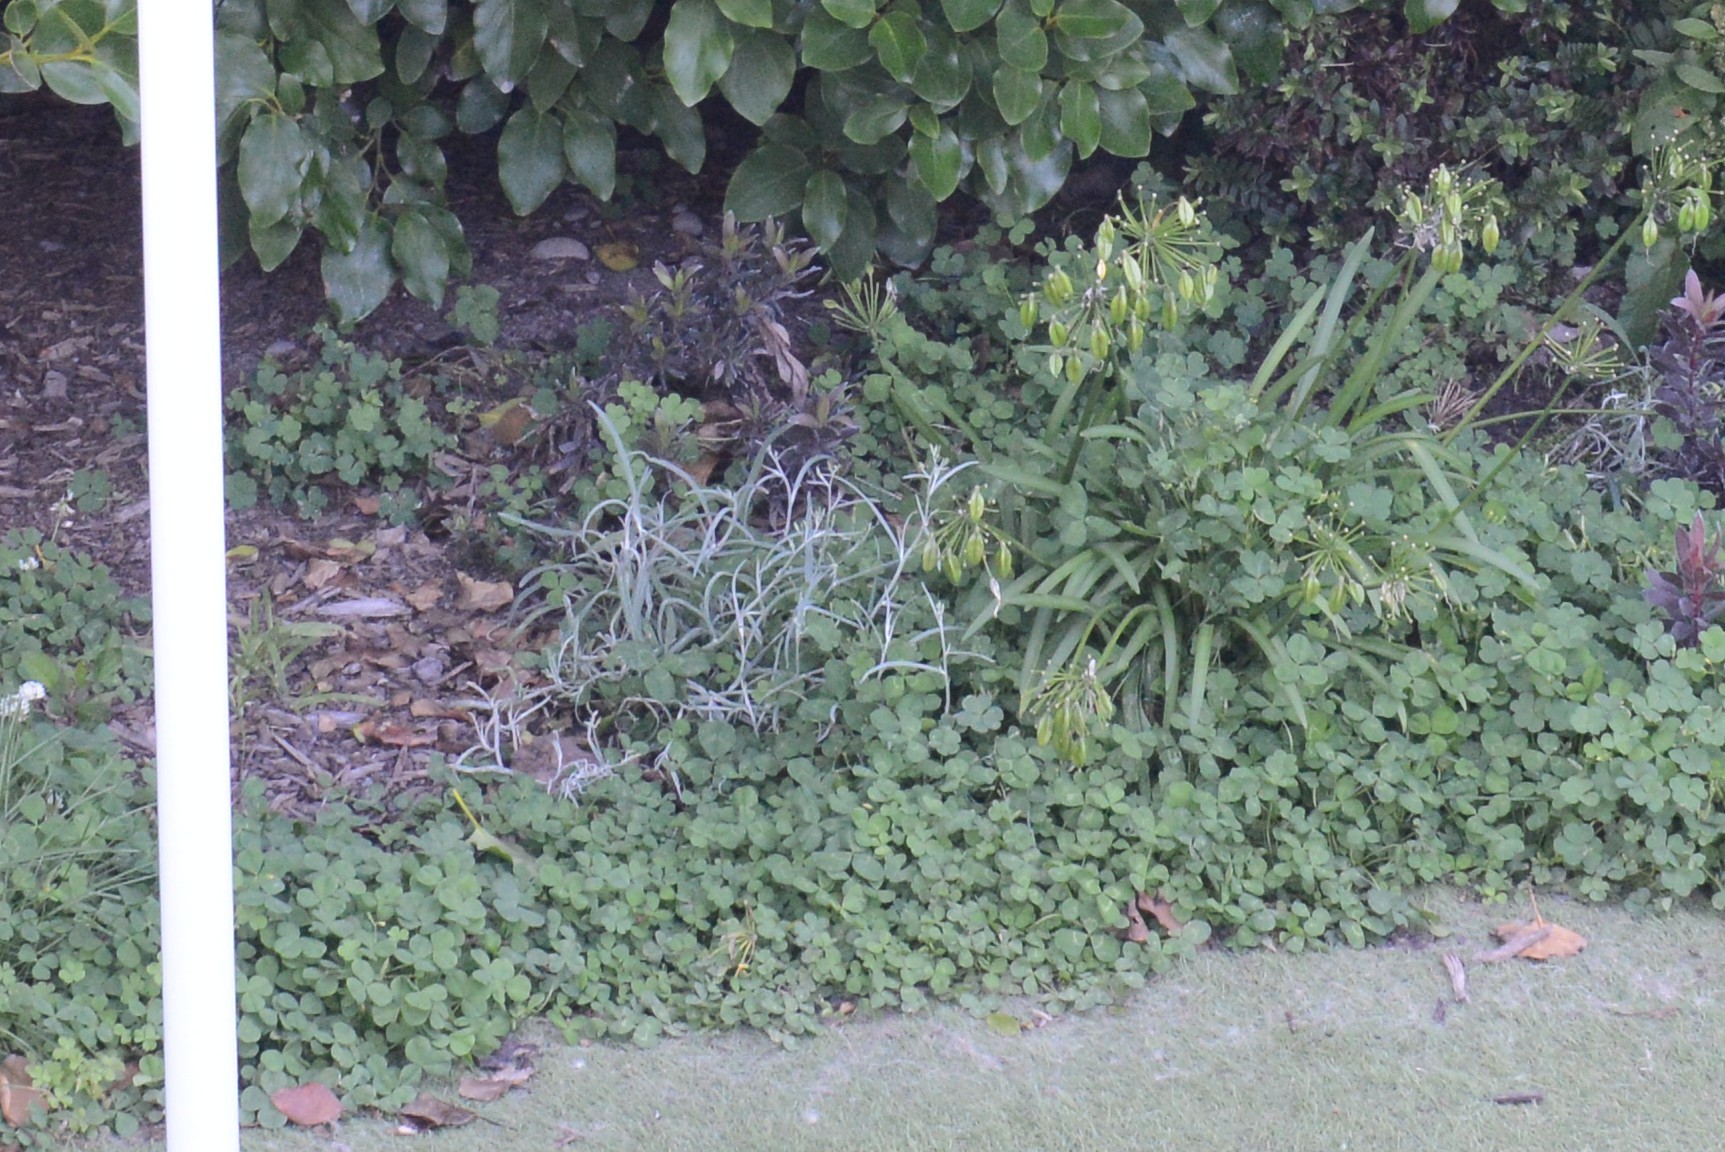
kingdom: Plantae
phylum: Tracheophyta
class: Magnoliopsida
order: Asterales
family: Asteraceae
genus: Senecio
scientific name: Senecio quadridentatus
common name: Cotton fireweed
